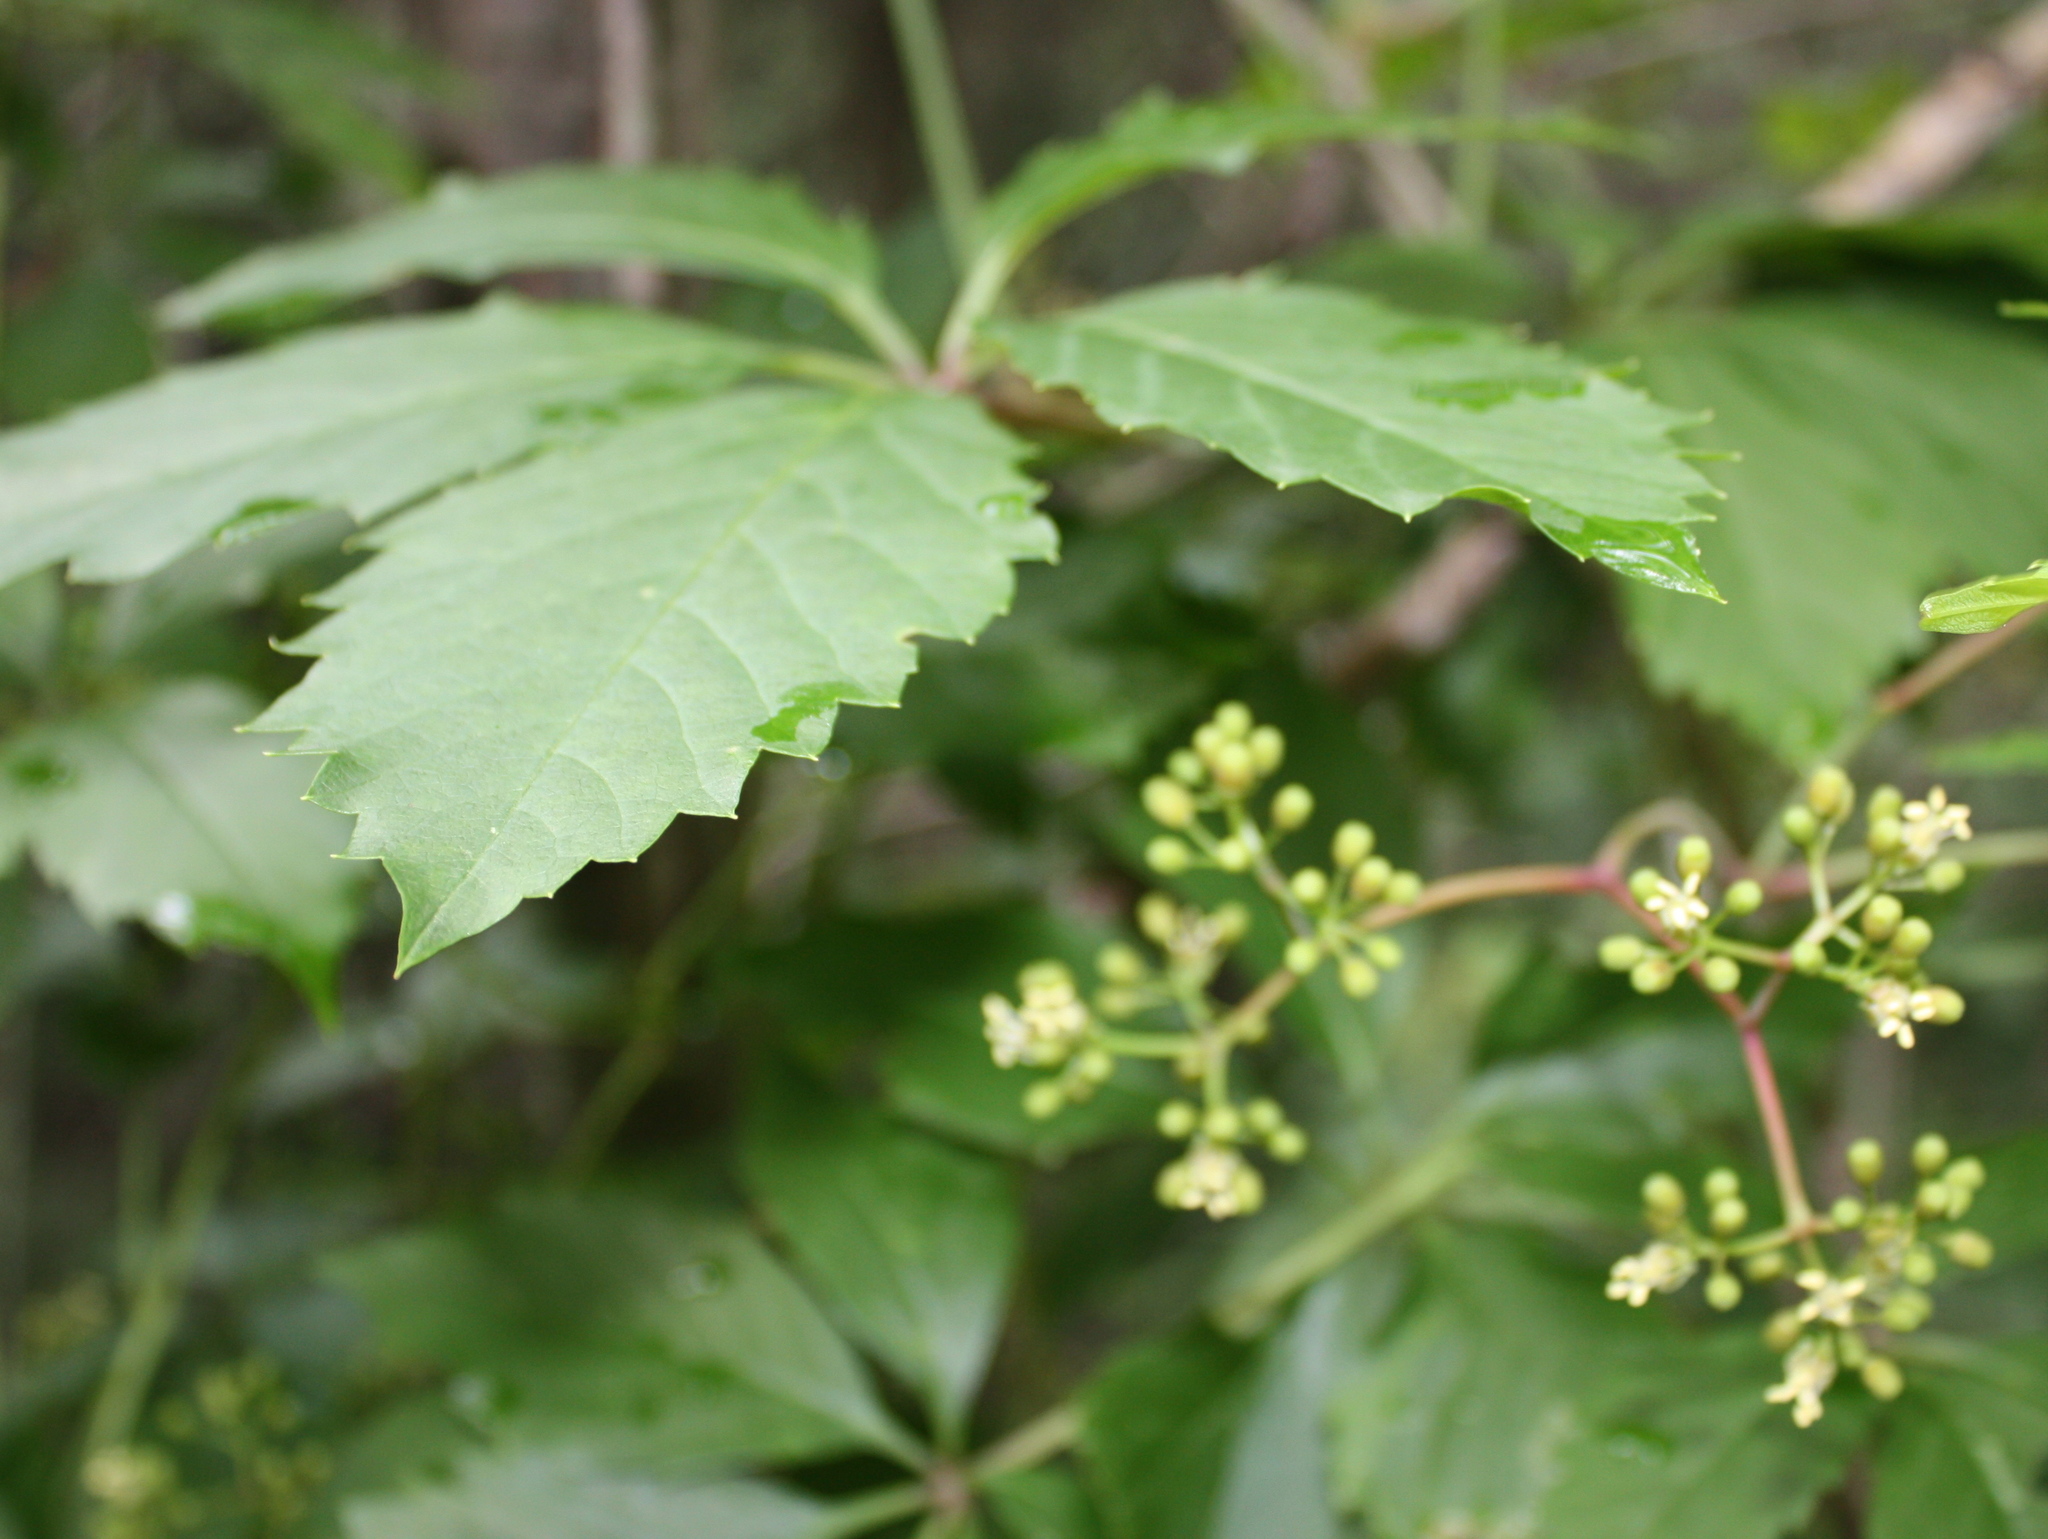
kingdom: Plantae
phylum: Tracheophyta
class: Magnoliopsida
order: Vitales
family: Vitaceae
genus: Parthenocissus
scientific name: Parthenocissus quinquefolia
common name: Virginia-creeper
